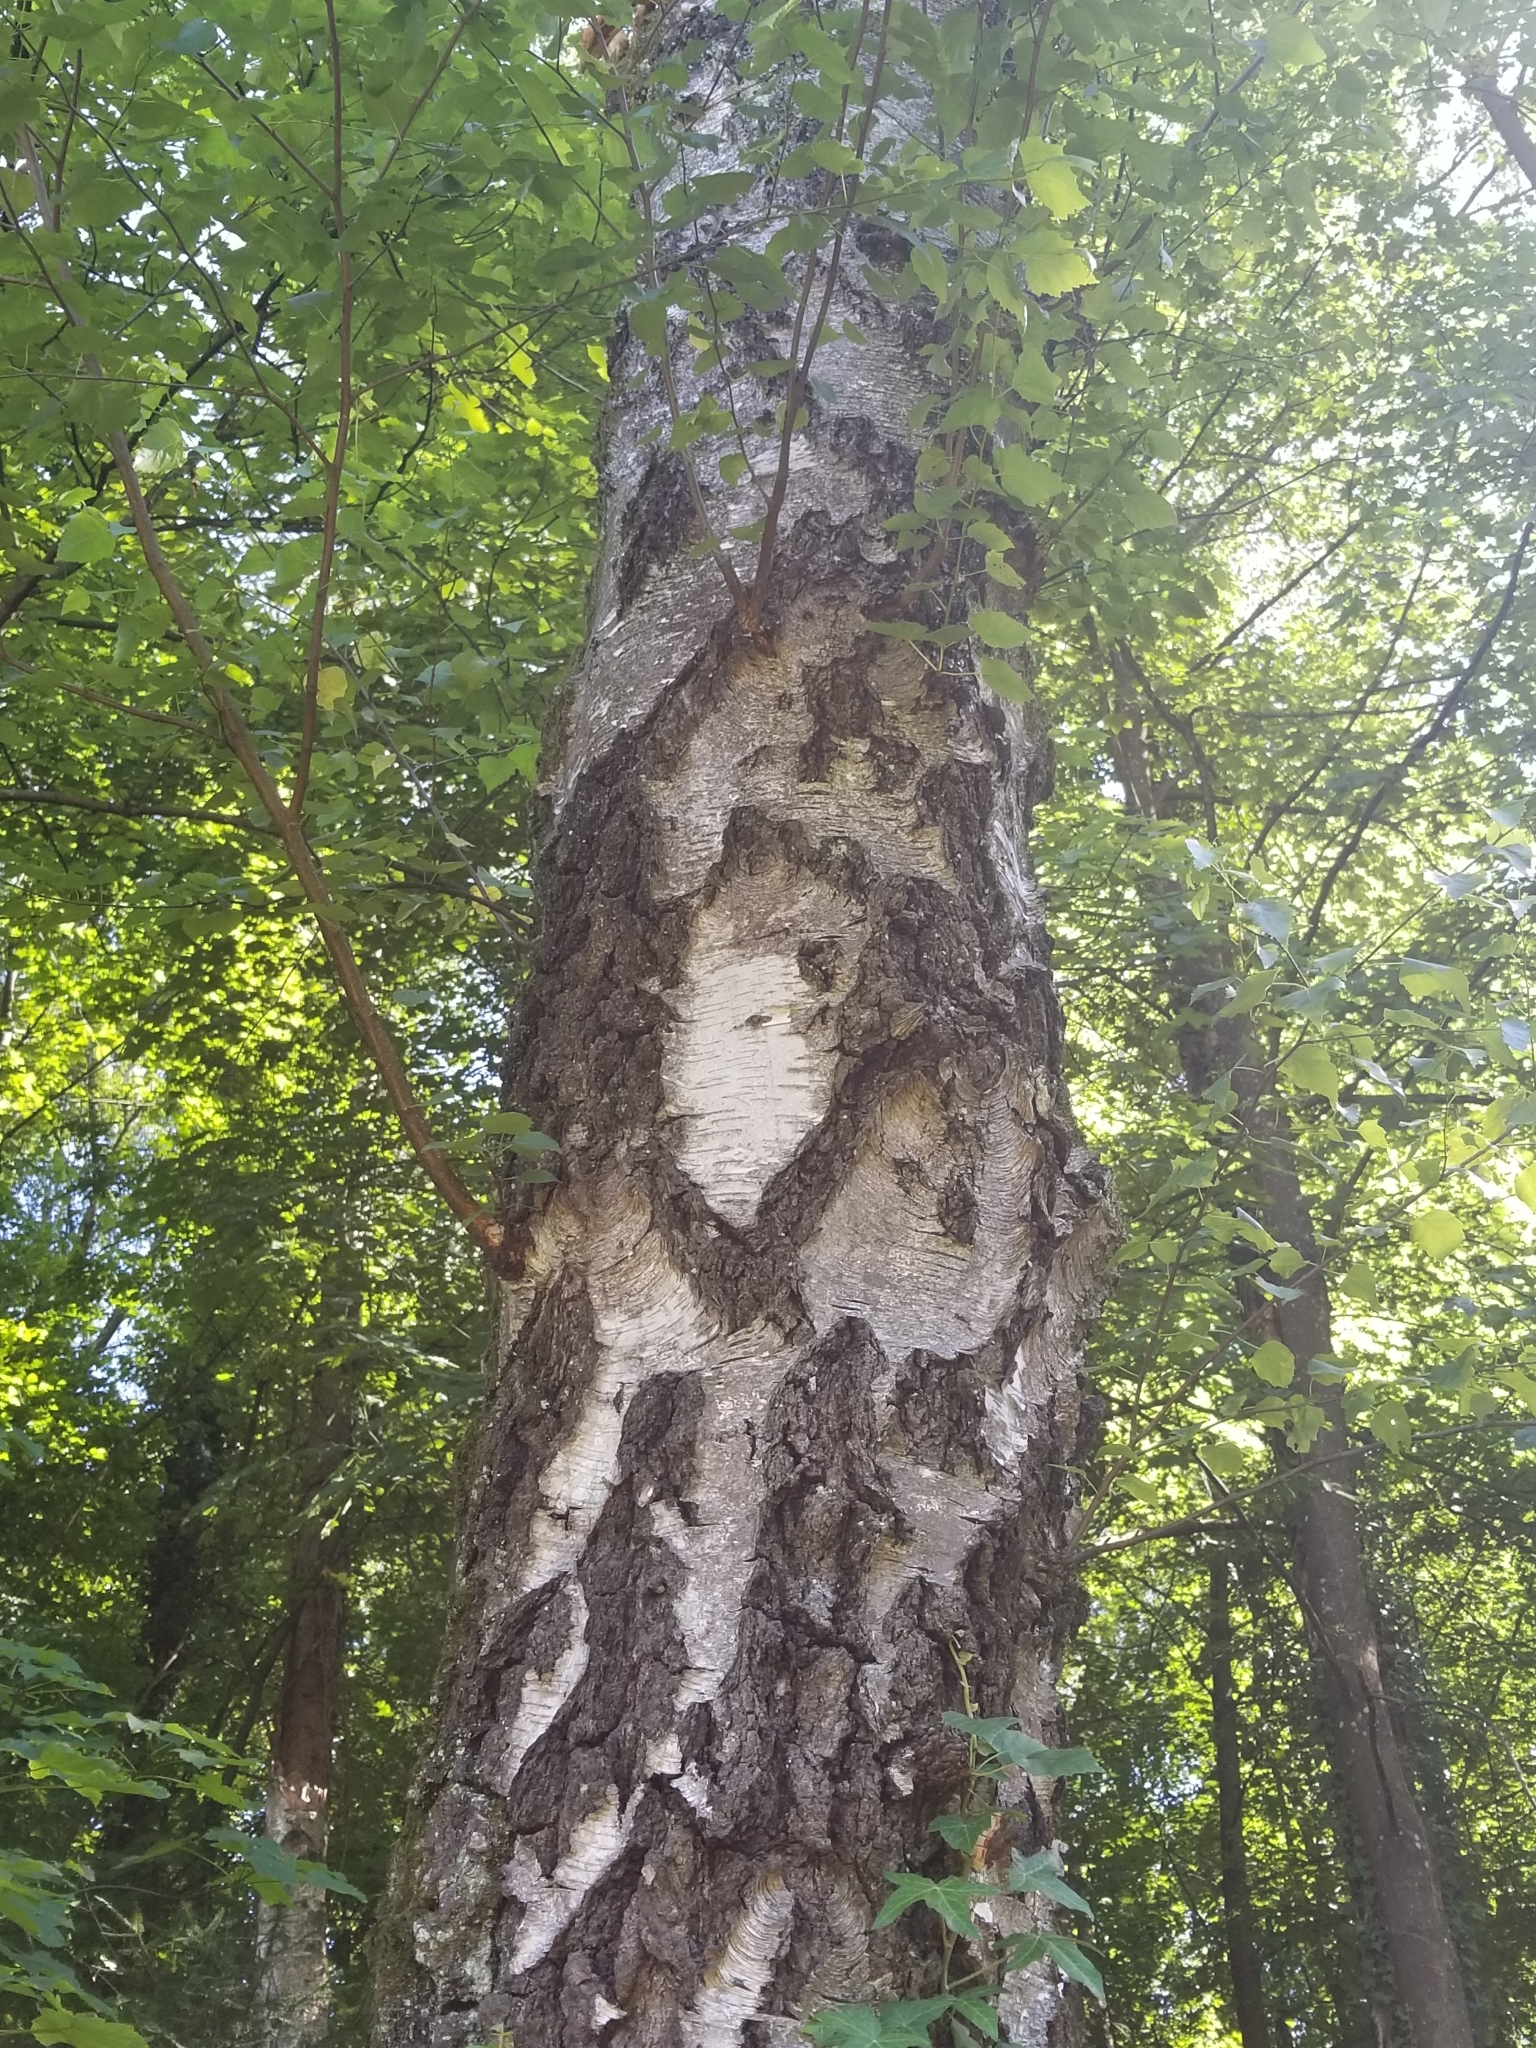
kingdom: Plantae
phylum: Tracheophyta
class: Magnoliopsida
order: Fagales
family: Betulaceae
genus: Betula
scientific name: Betula pendula
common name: Silver birch
